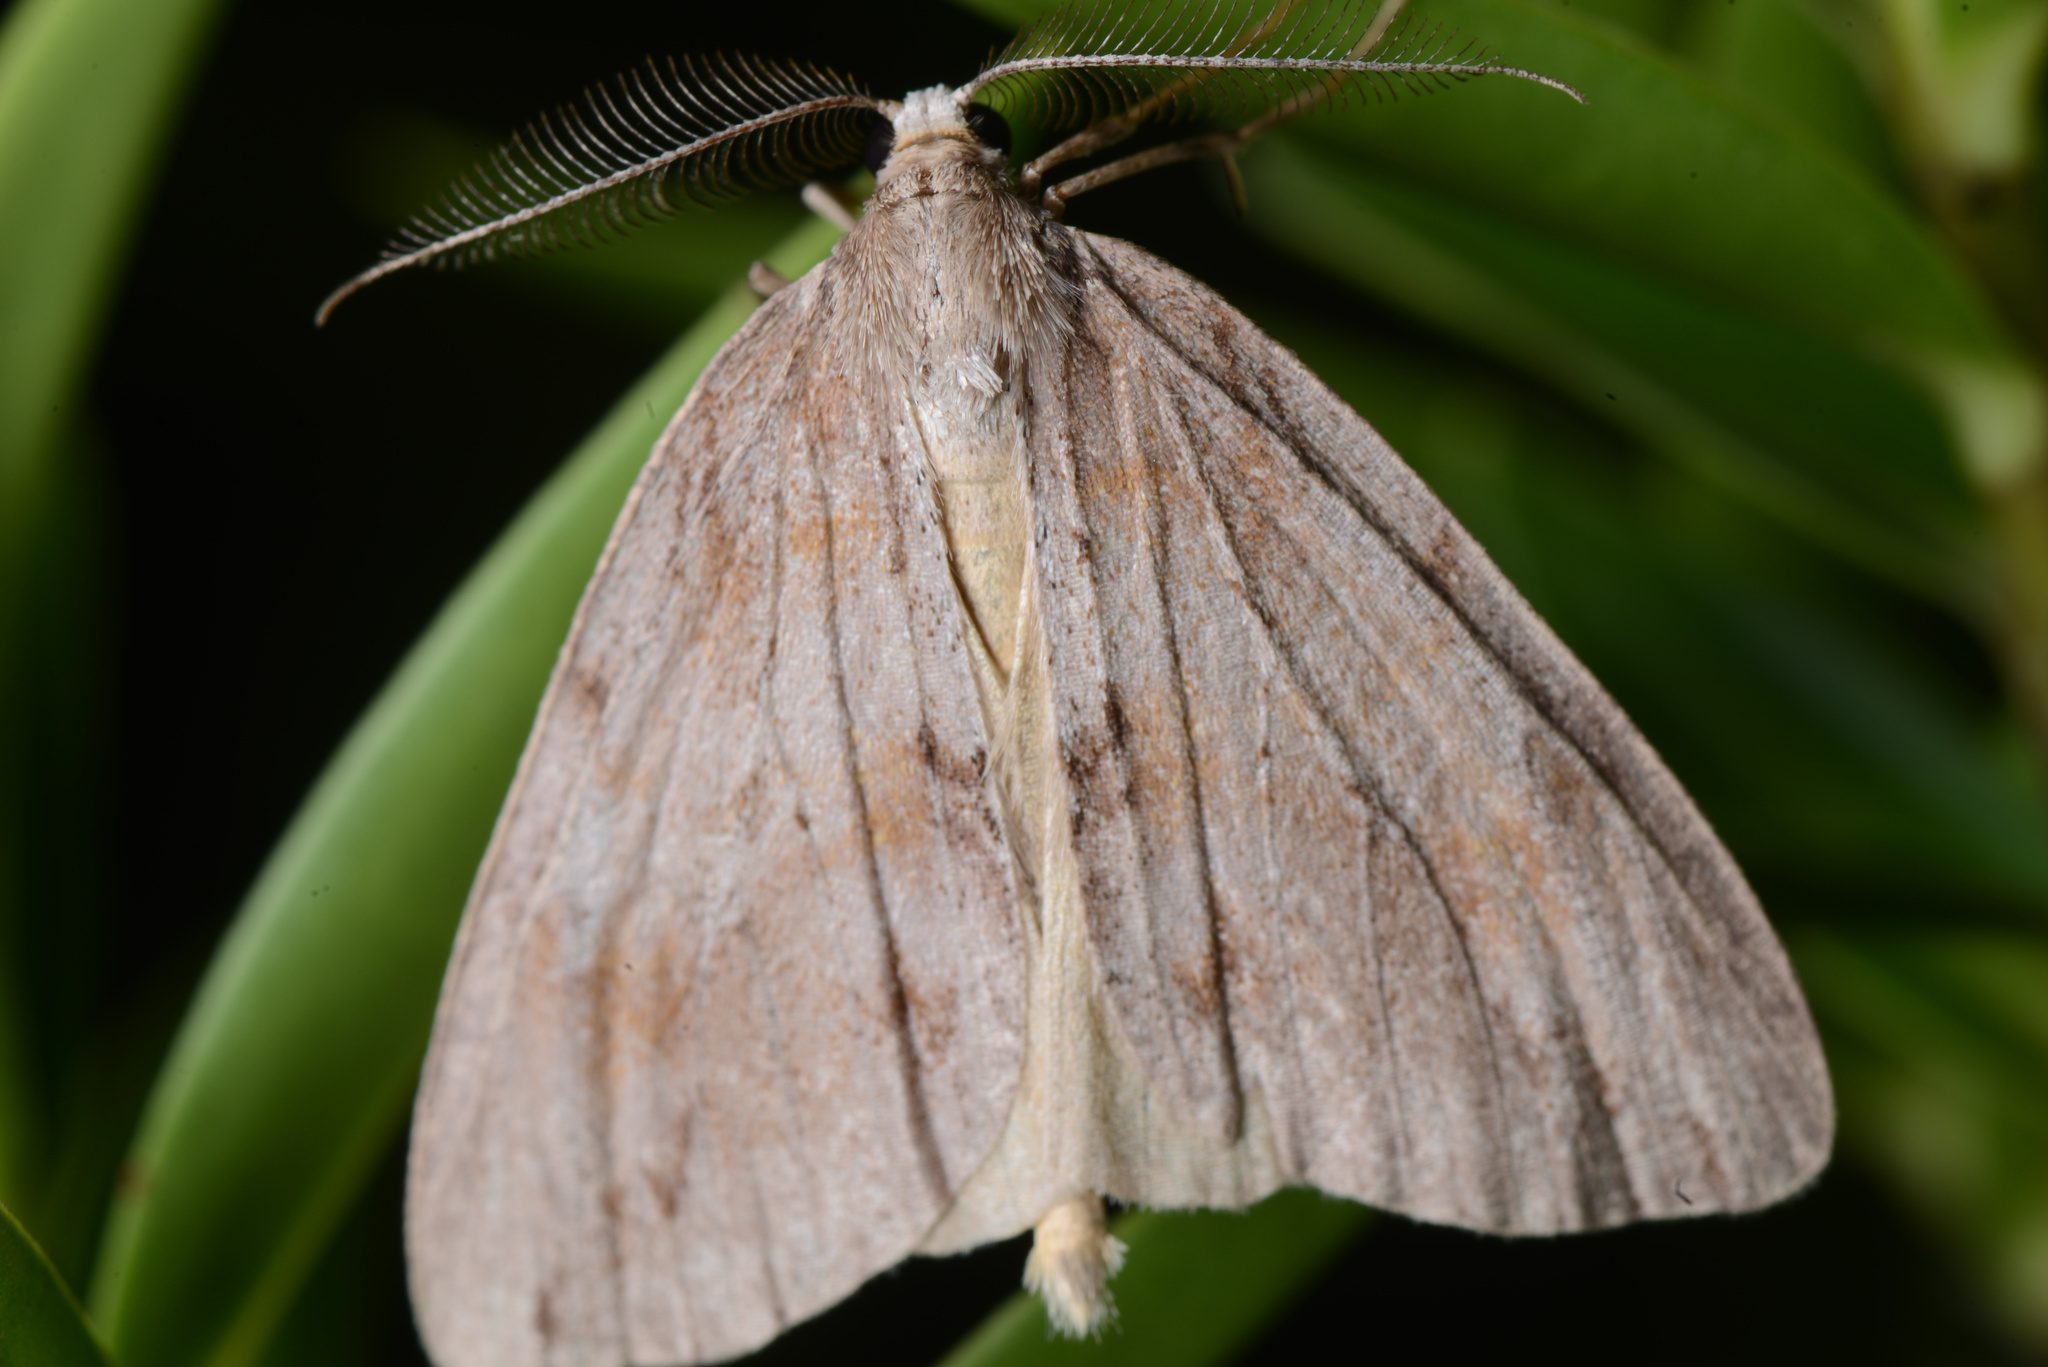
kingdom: Animalia
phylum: Arthropoda
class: Insecta
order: Lepidoptera
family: Geometridae
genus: Pseudocoremia
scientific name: Pseudocoremia lupinata
